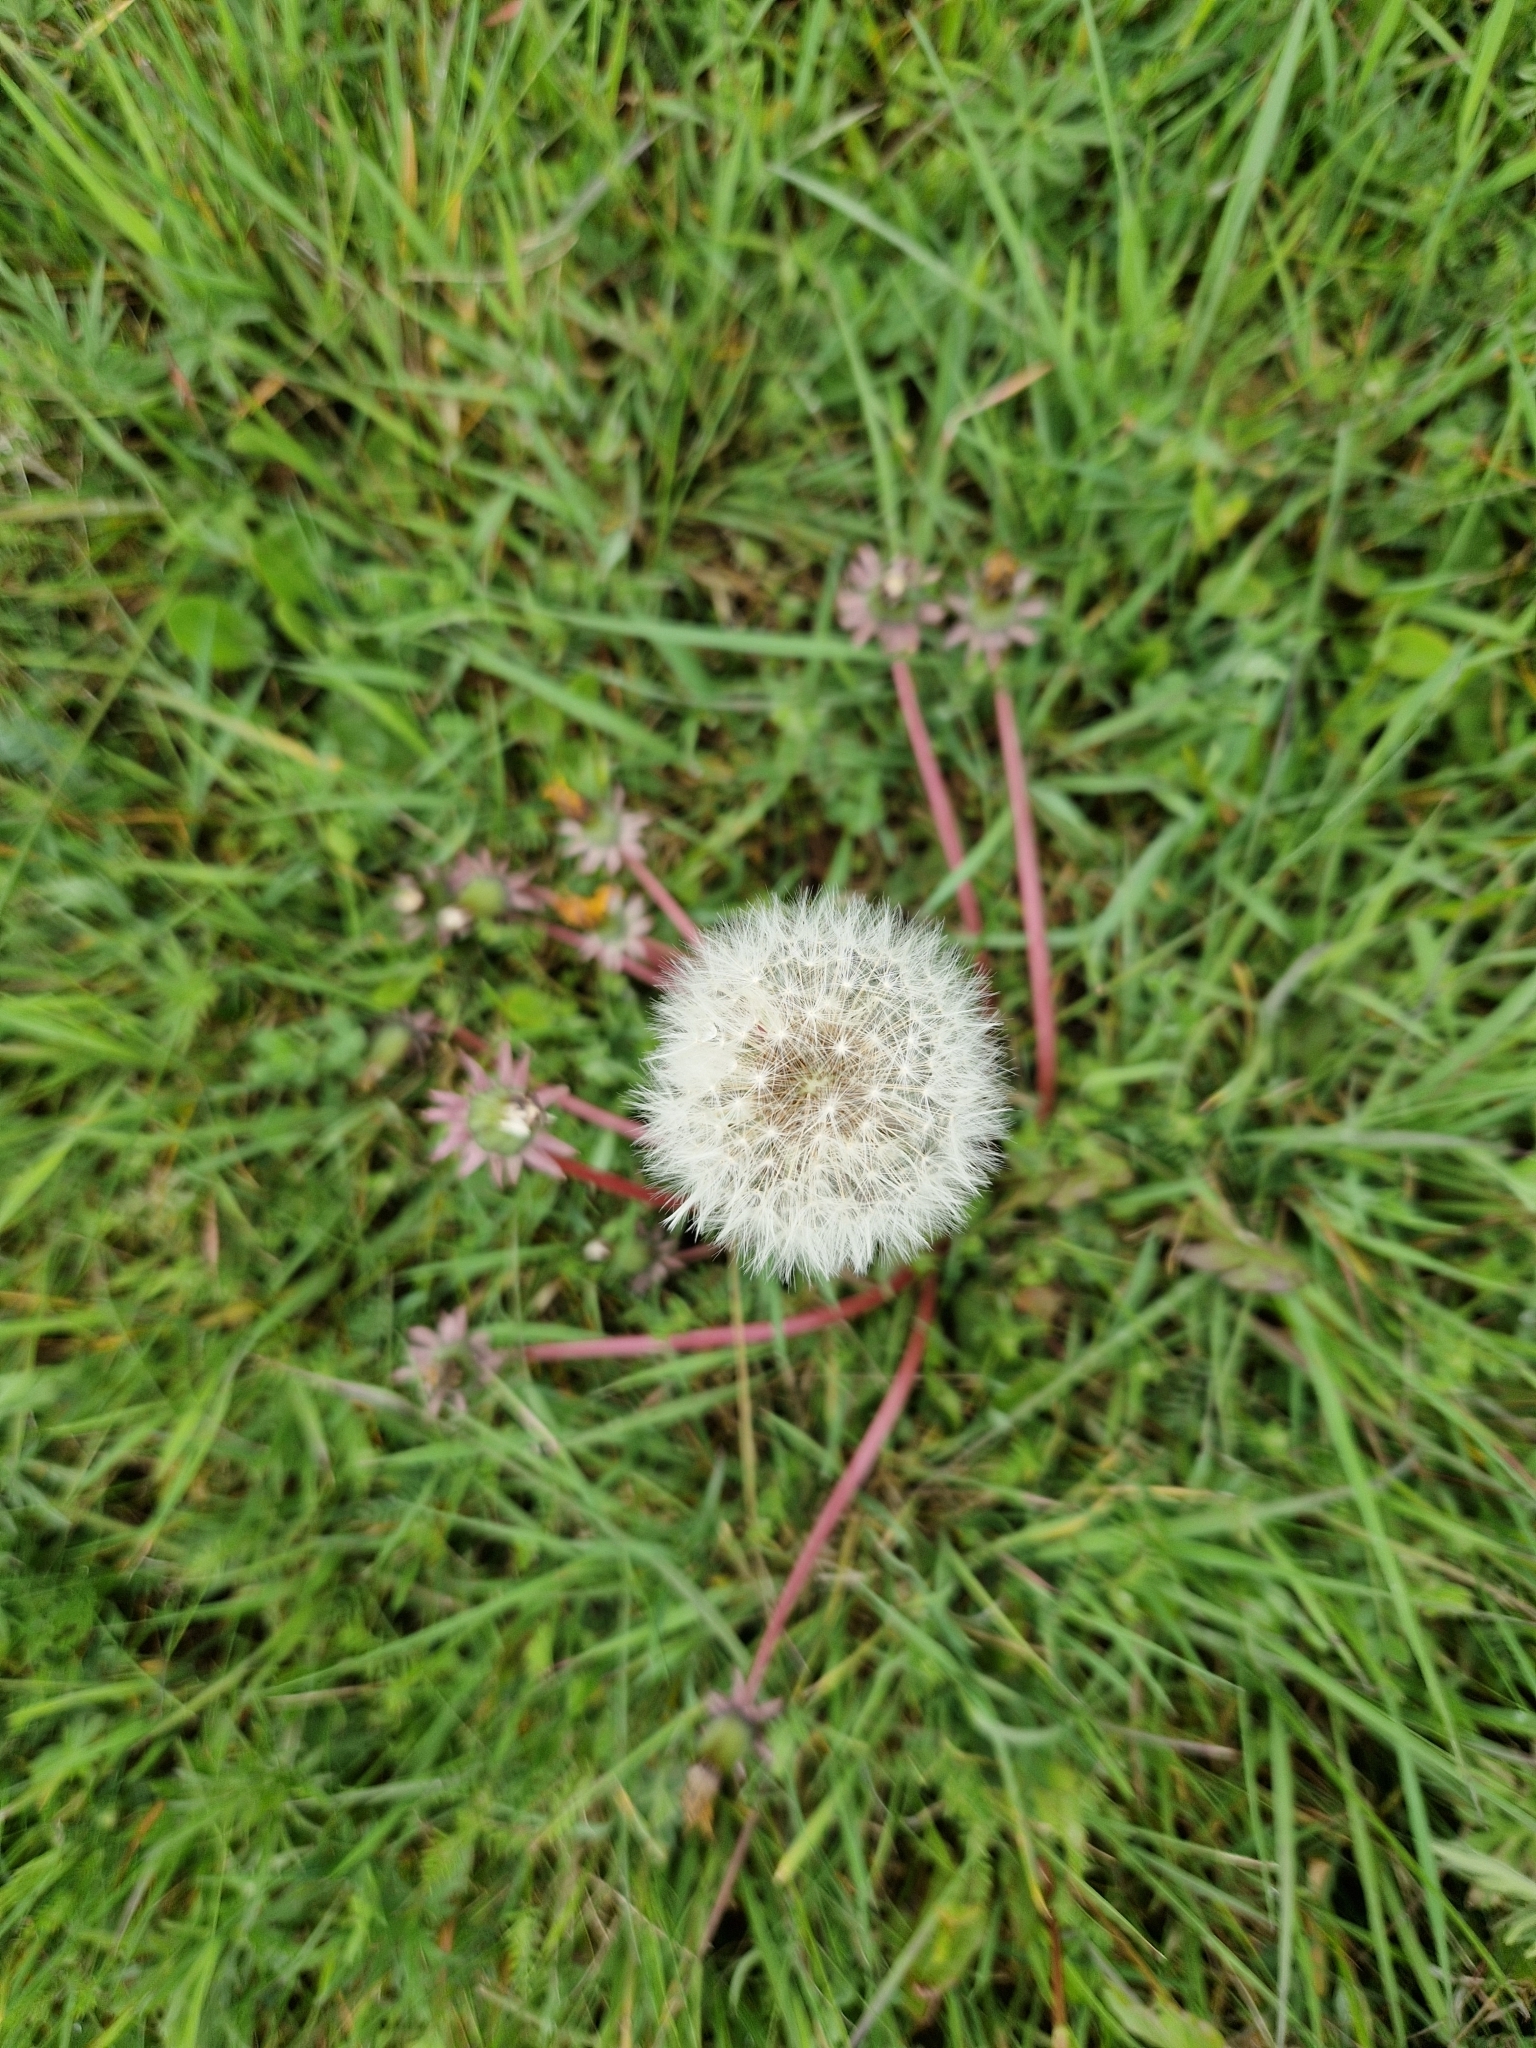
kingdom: Plantae
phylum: Tracheophyta
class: Magnoliopsida
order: Asterales
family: Asteraceae
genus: Taraxacum
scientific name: Taraxacum officinale
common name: Common dandelion
